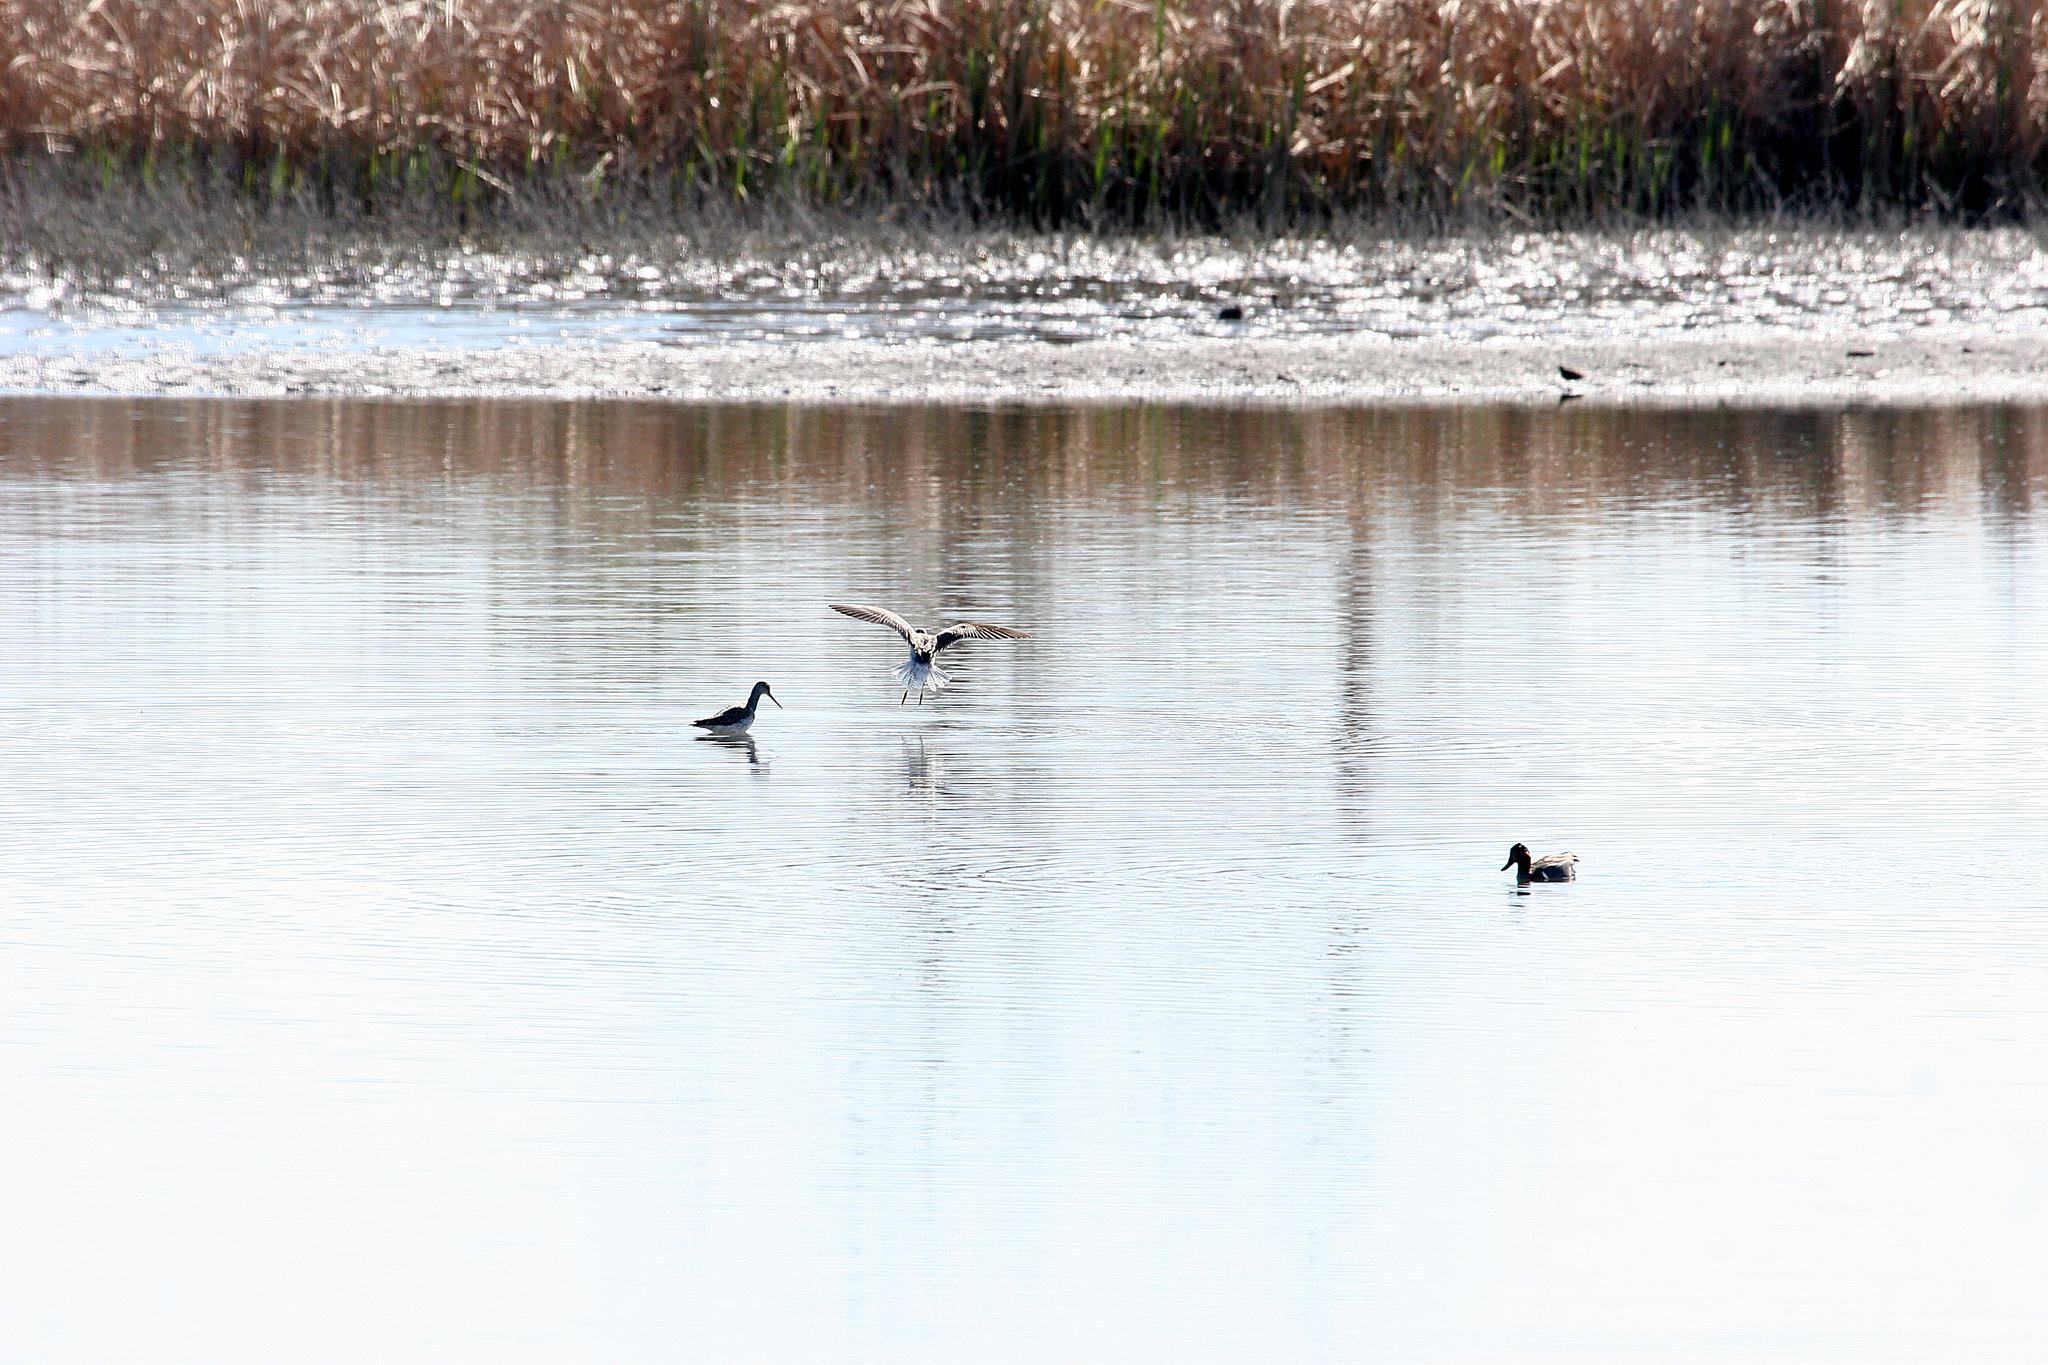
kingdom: Animalia
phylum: Chordata
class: Aves
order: Charadriiformes
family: Scolopacidae
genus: Tringa
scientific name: Tringa melanoleuca
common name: Greater yellowlegs
